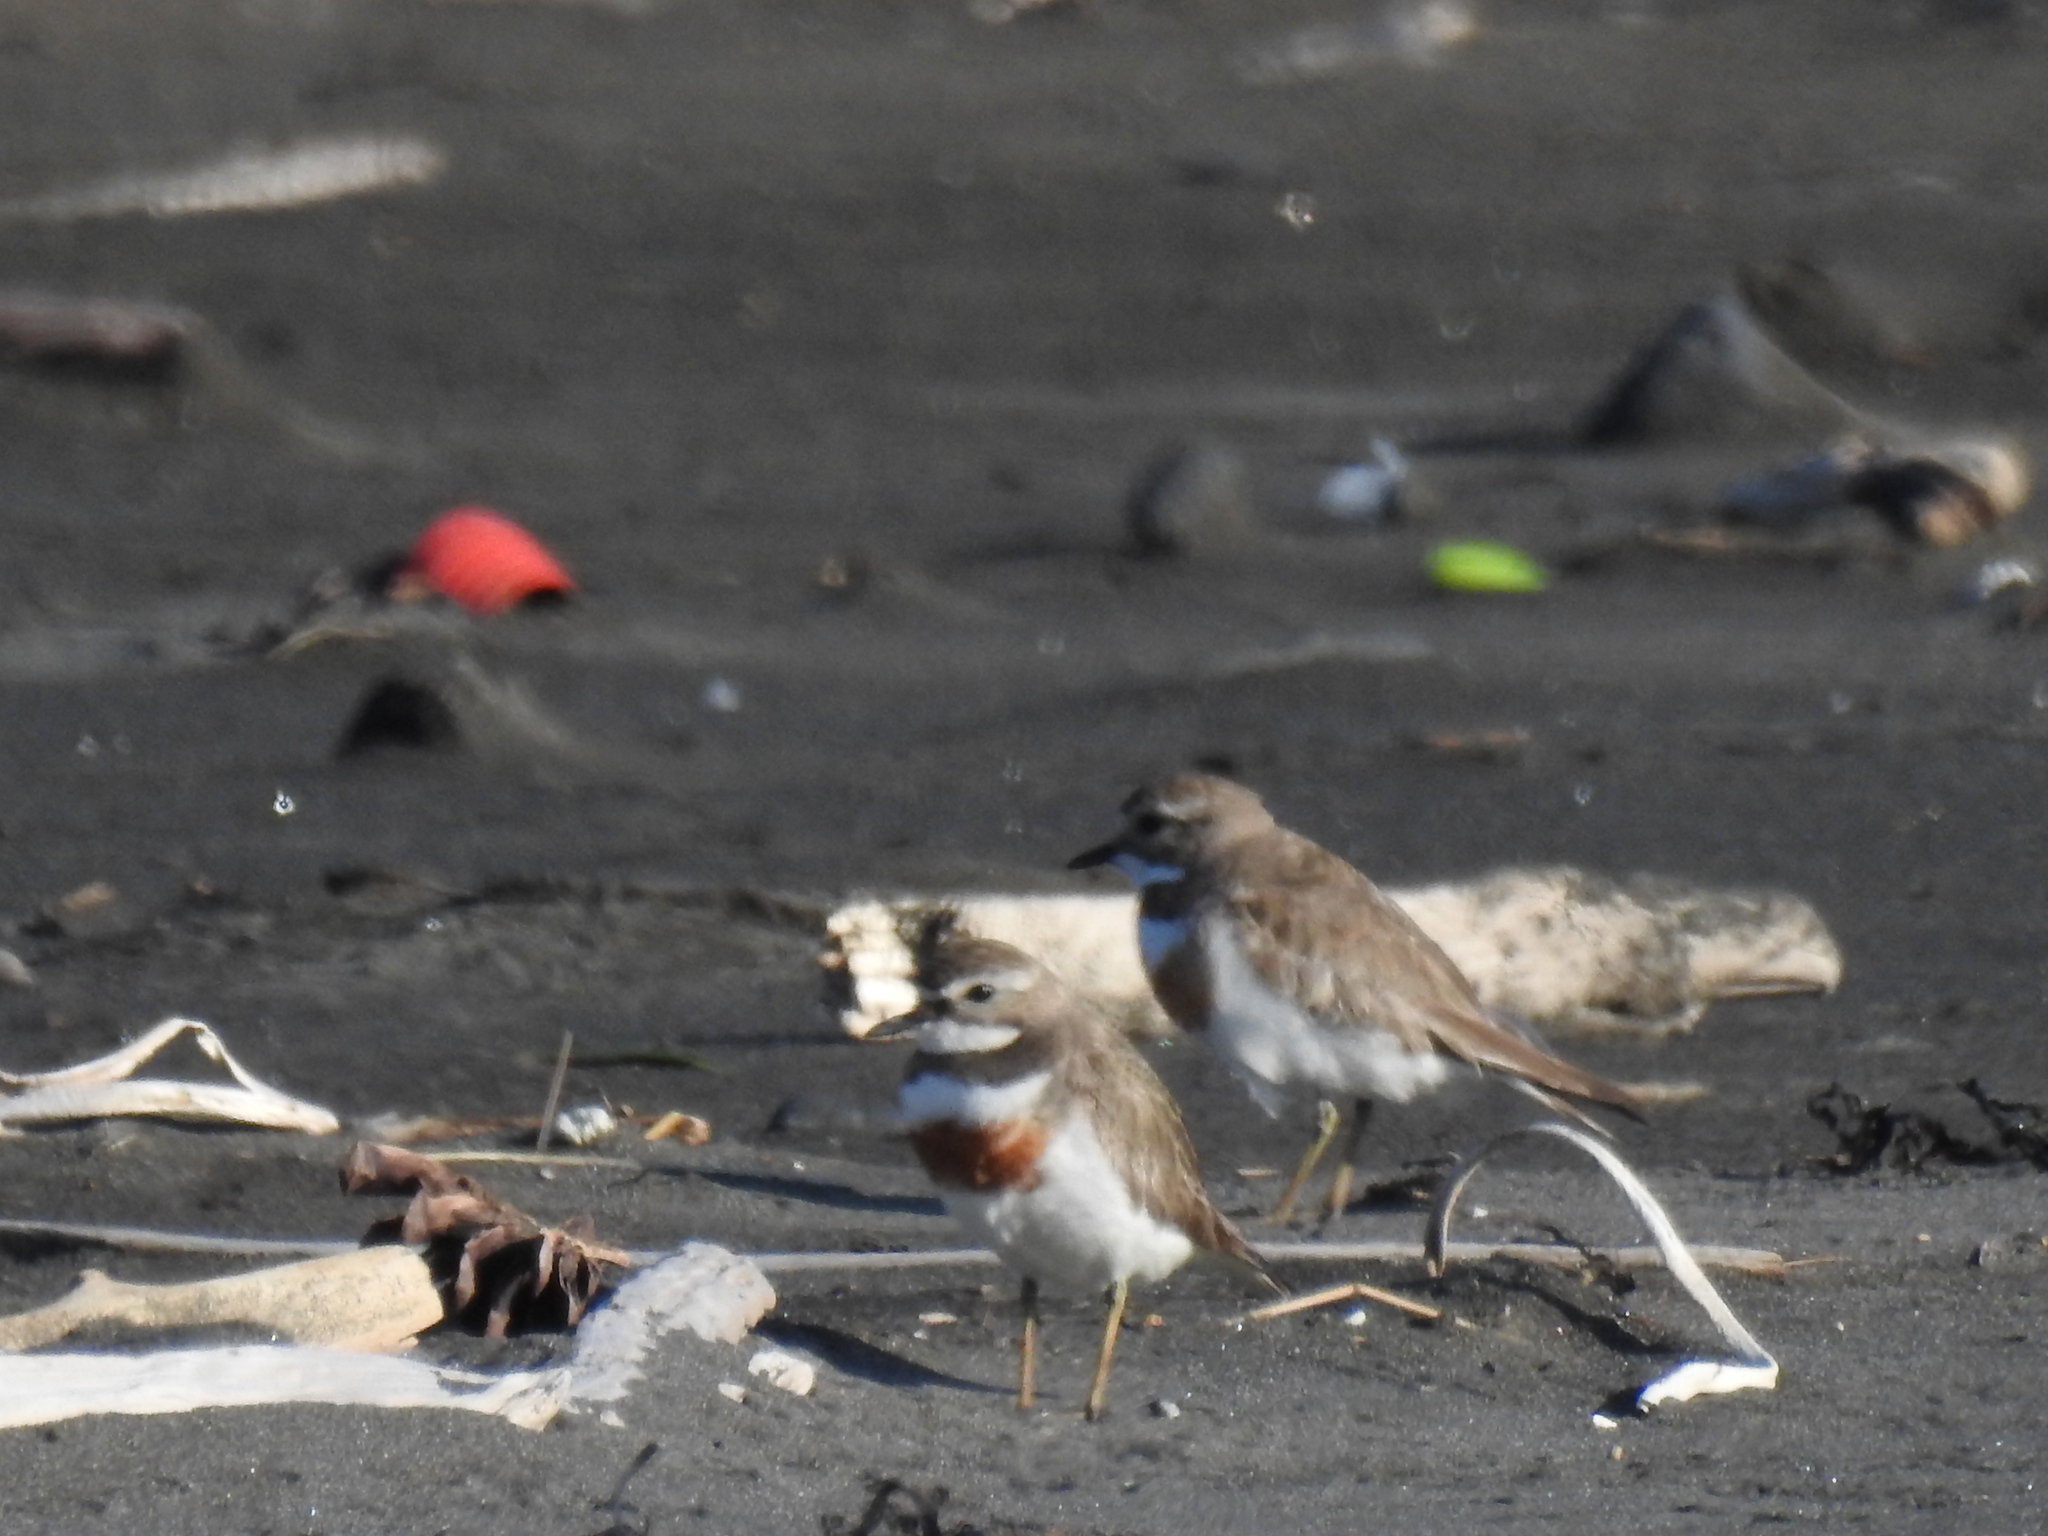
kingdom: Animalia
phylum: Chordata
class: Aves
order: Charadriiformes
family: Charadriidae
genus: Anarhynchus
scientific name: Anarhynchus
